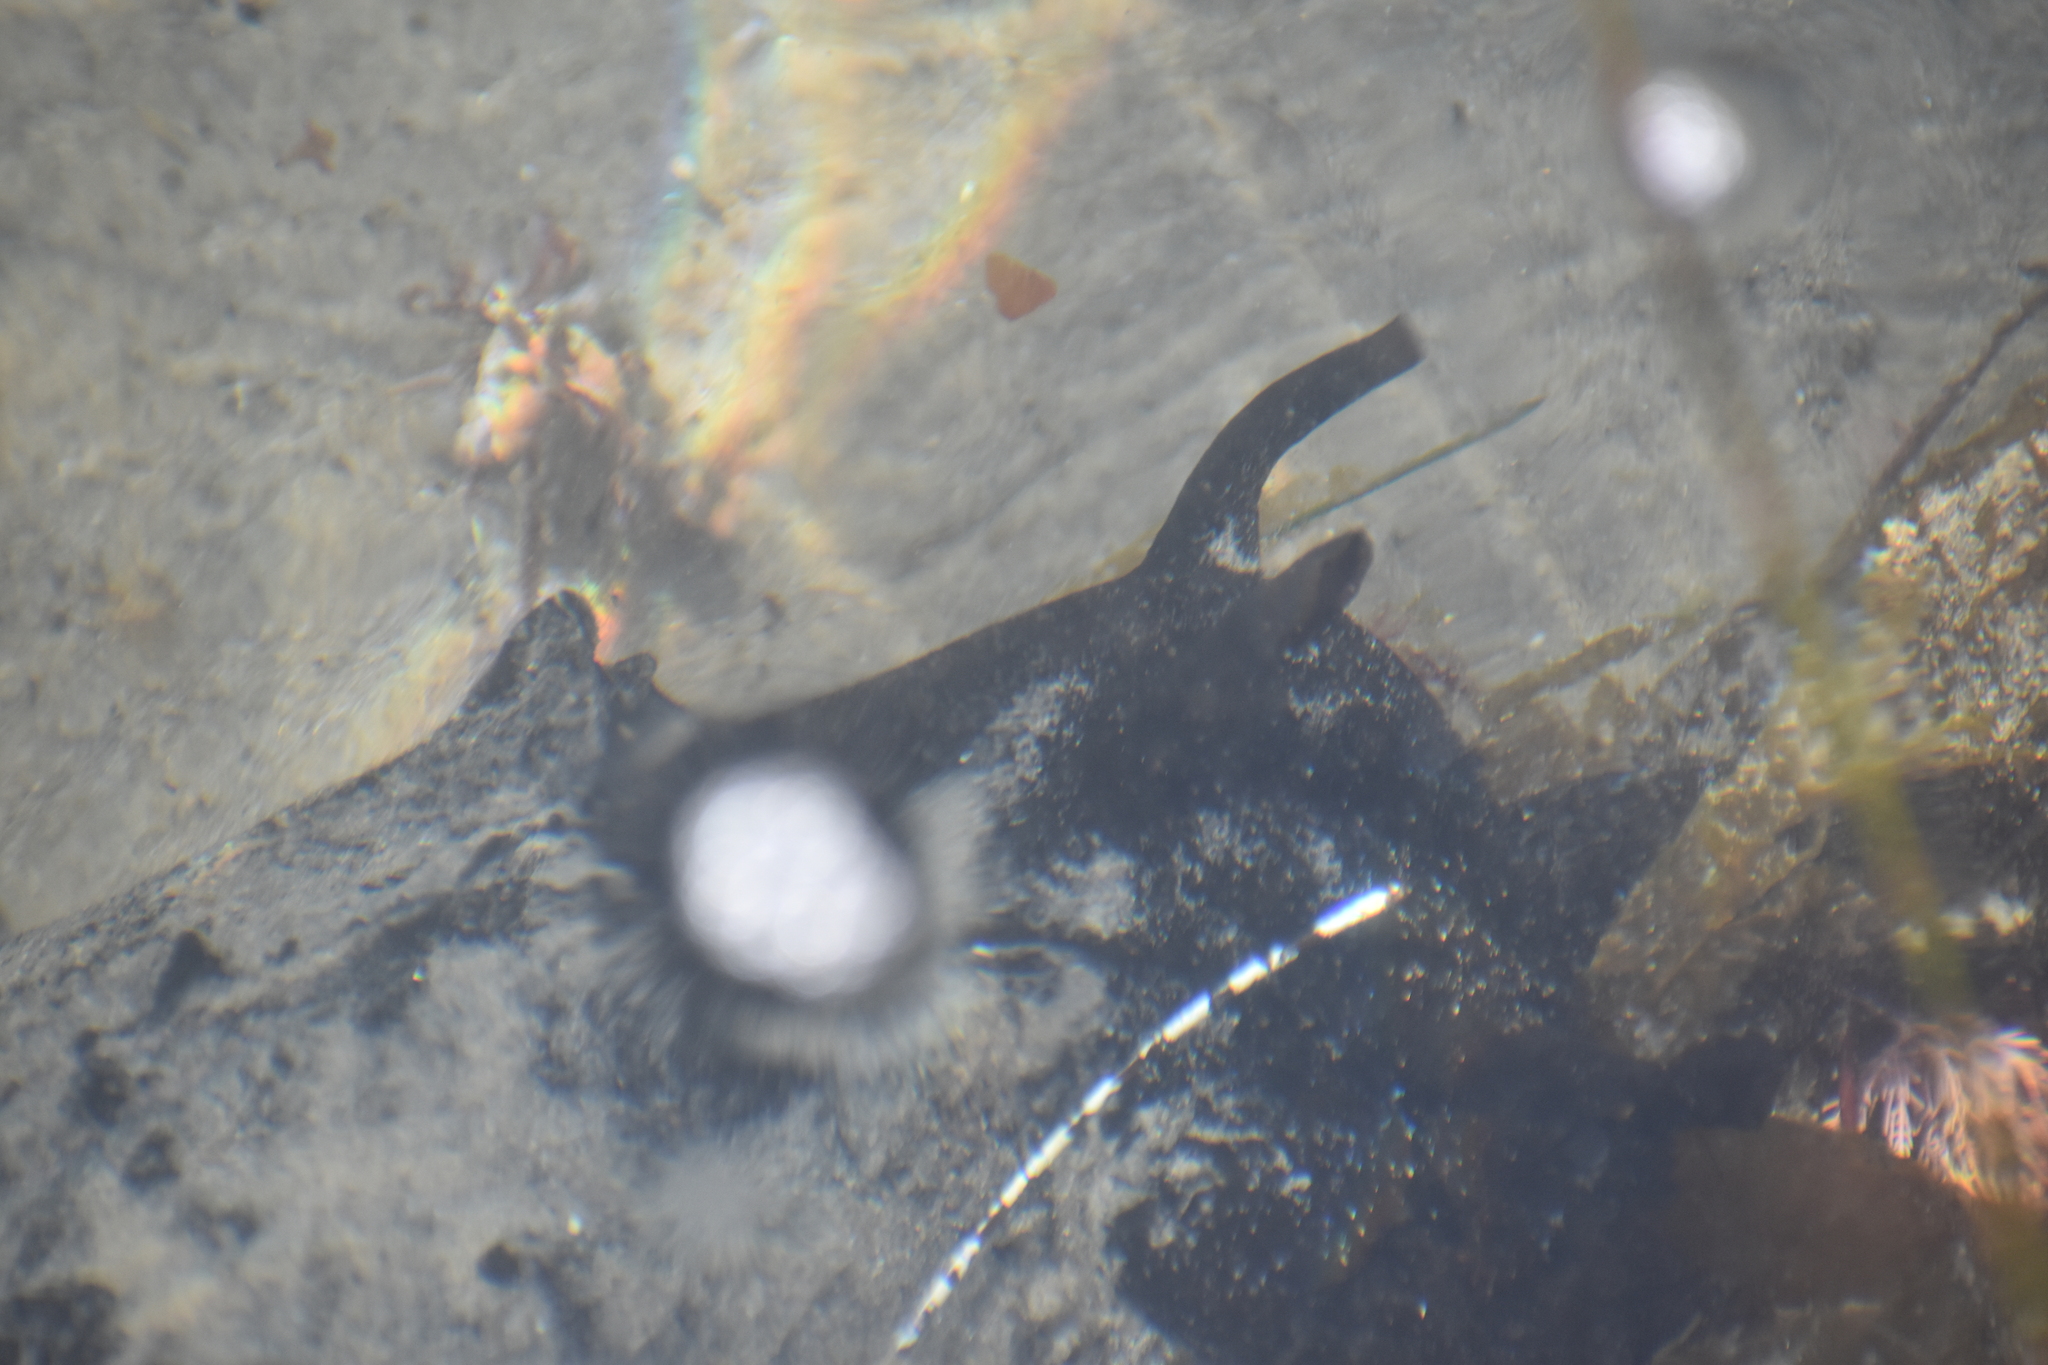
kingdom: Animalia
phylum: Mollusca
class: Gastropoda
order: Aplysiida
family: Aplysiidae
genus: Aplysia
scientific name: Aplysia vaccaria
